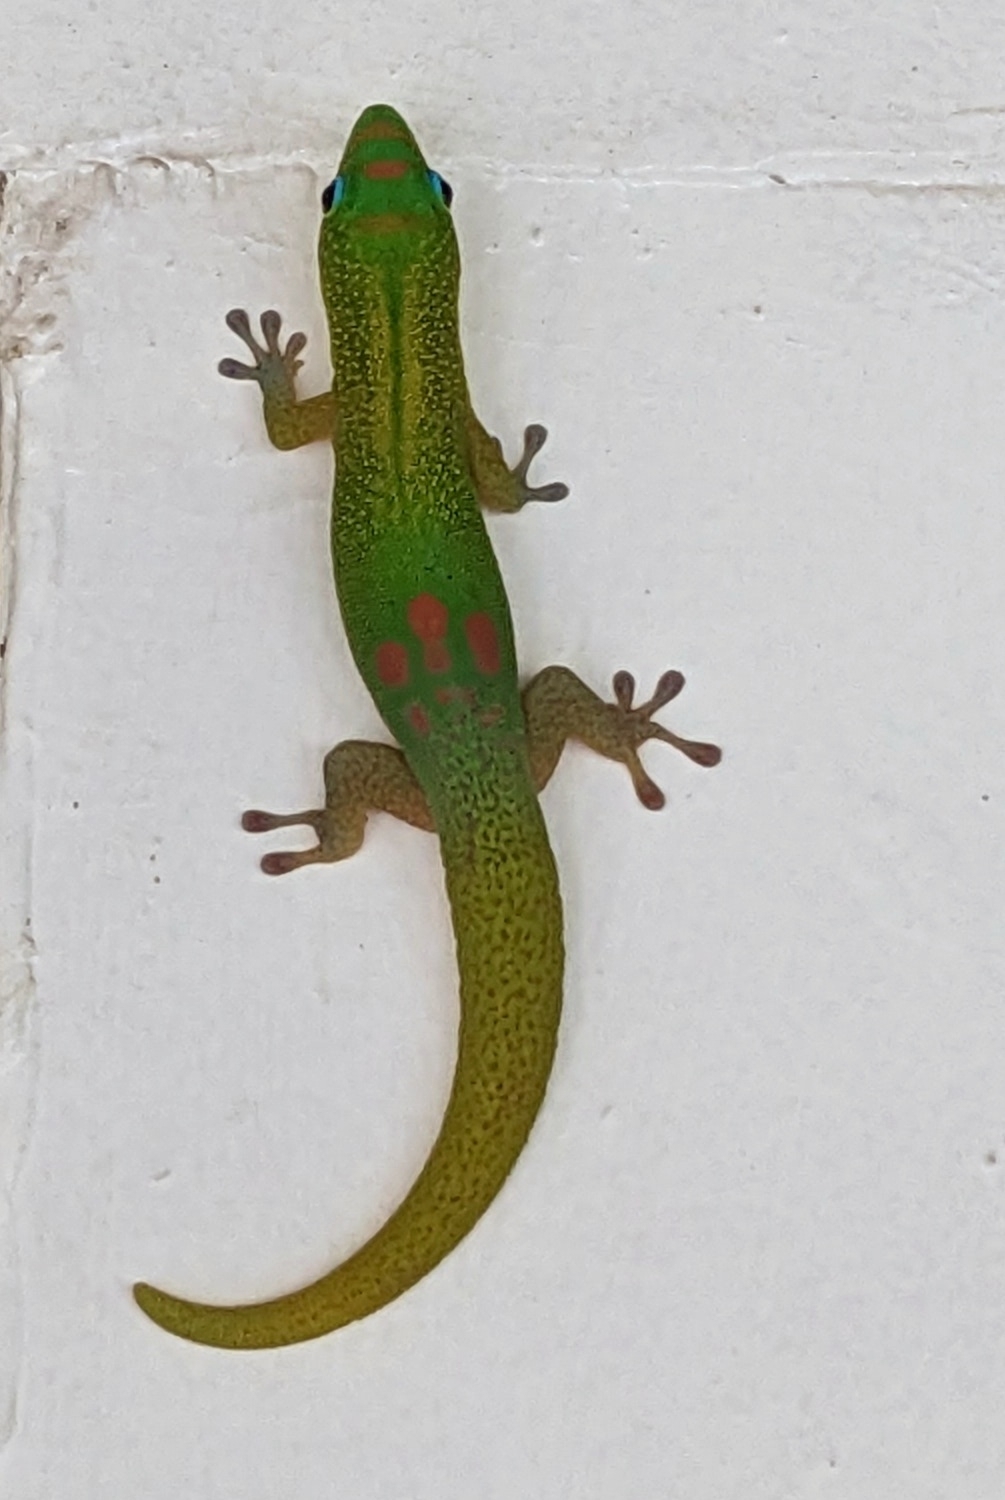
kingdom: Animalia
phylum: Chordata
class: Squamata
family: Gekkonidae
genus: Phelsuma
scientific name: Phelsuma laticauda
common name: Gold dust day gecko
